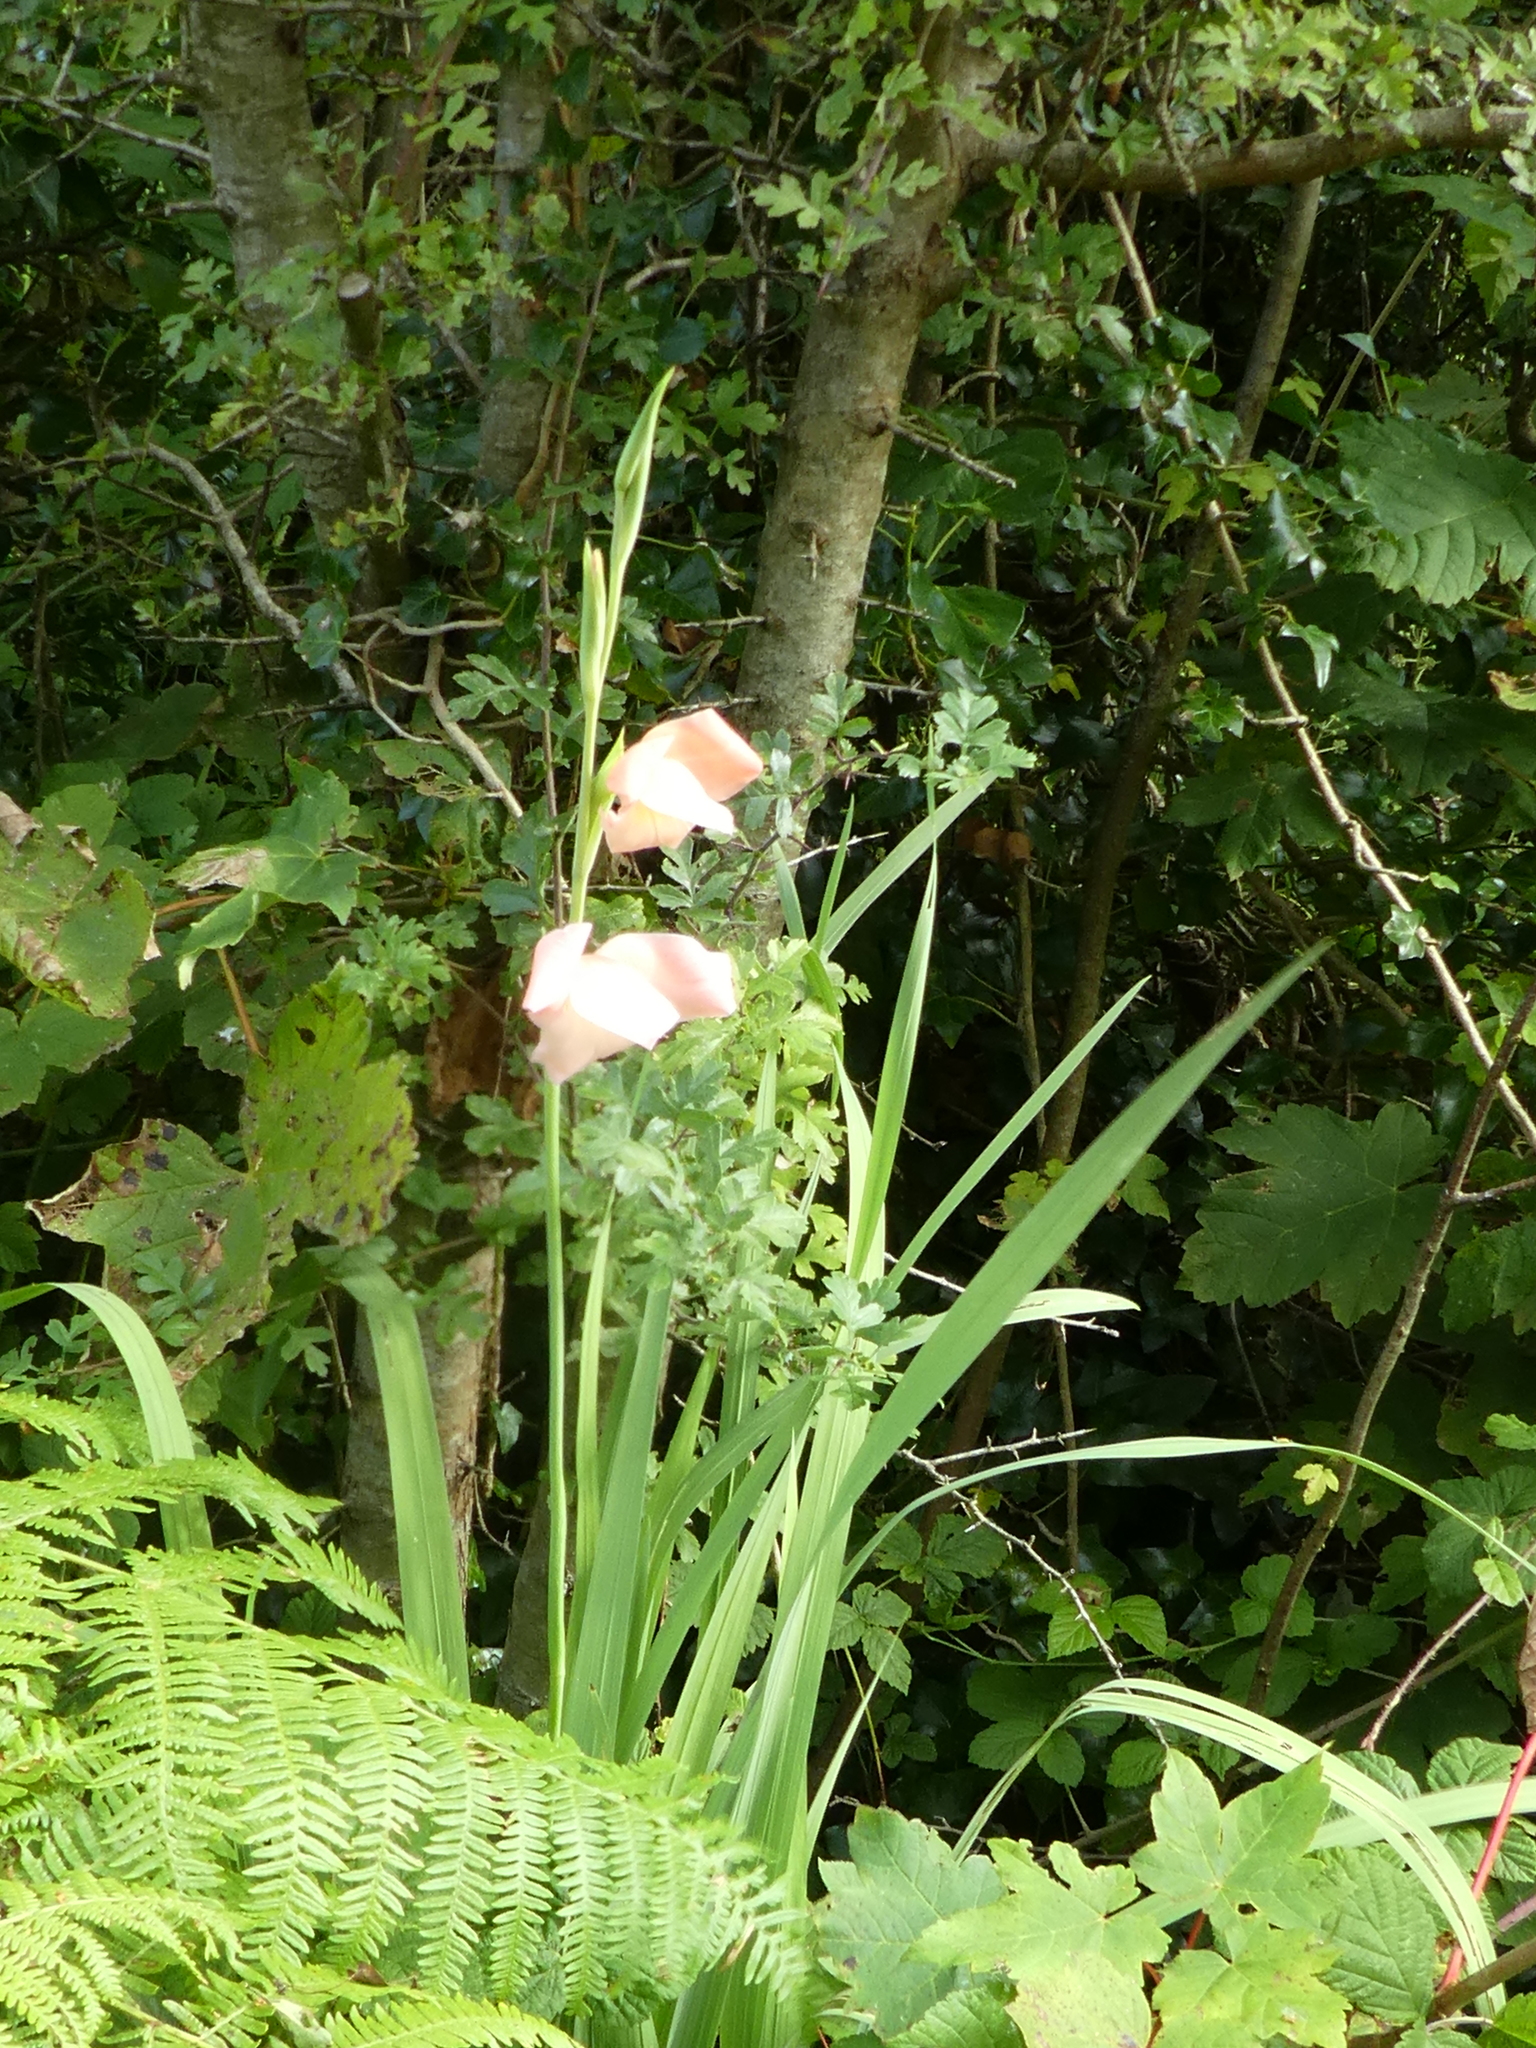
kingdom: Plantae
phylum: Tracheophyta
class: Liliopsida
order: Asparagales
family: Iridaceae
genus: Gladiolus
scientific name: Gladiolus hortulanus
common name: Large-flowered gladiolus
